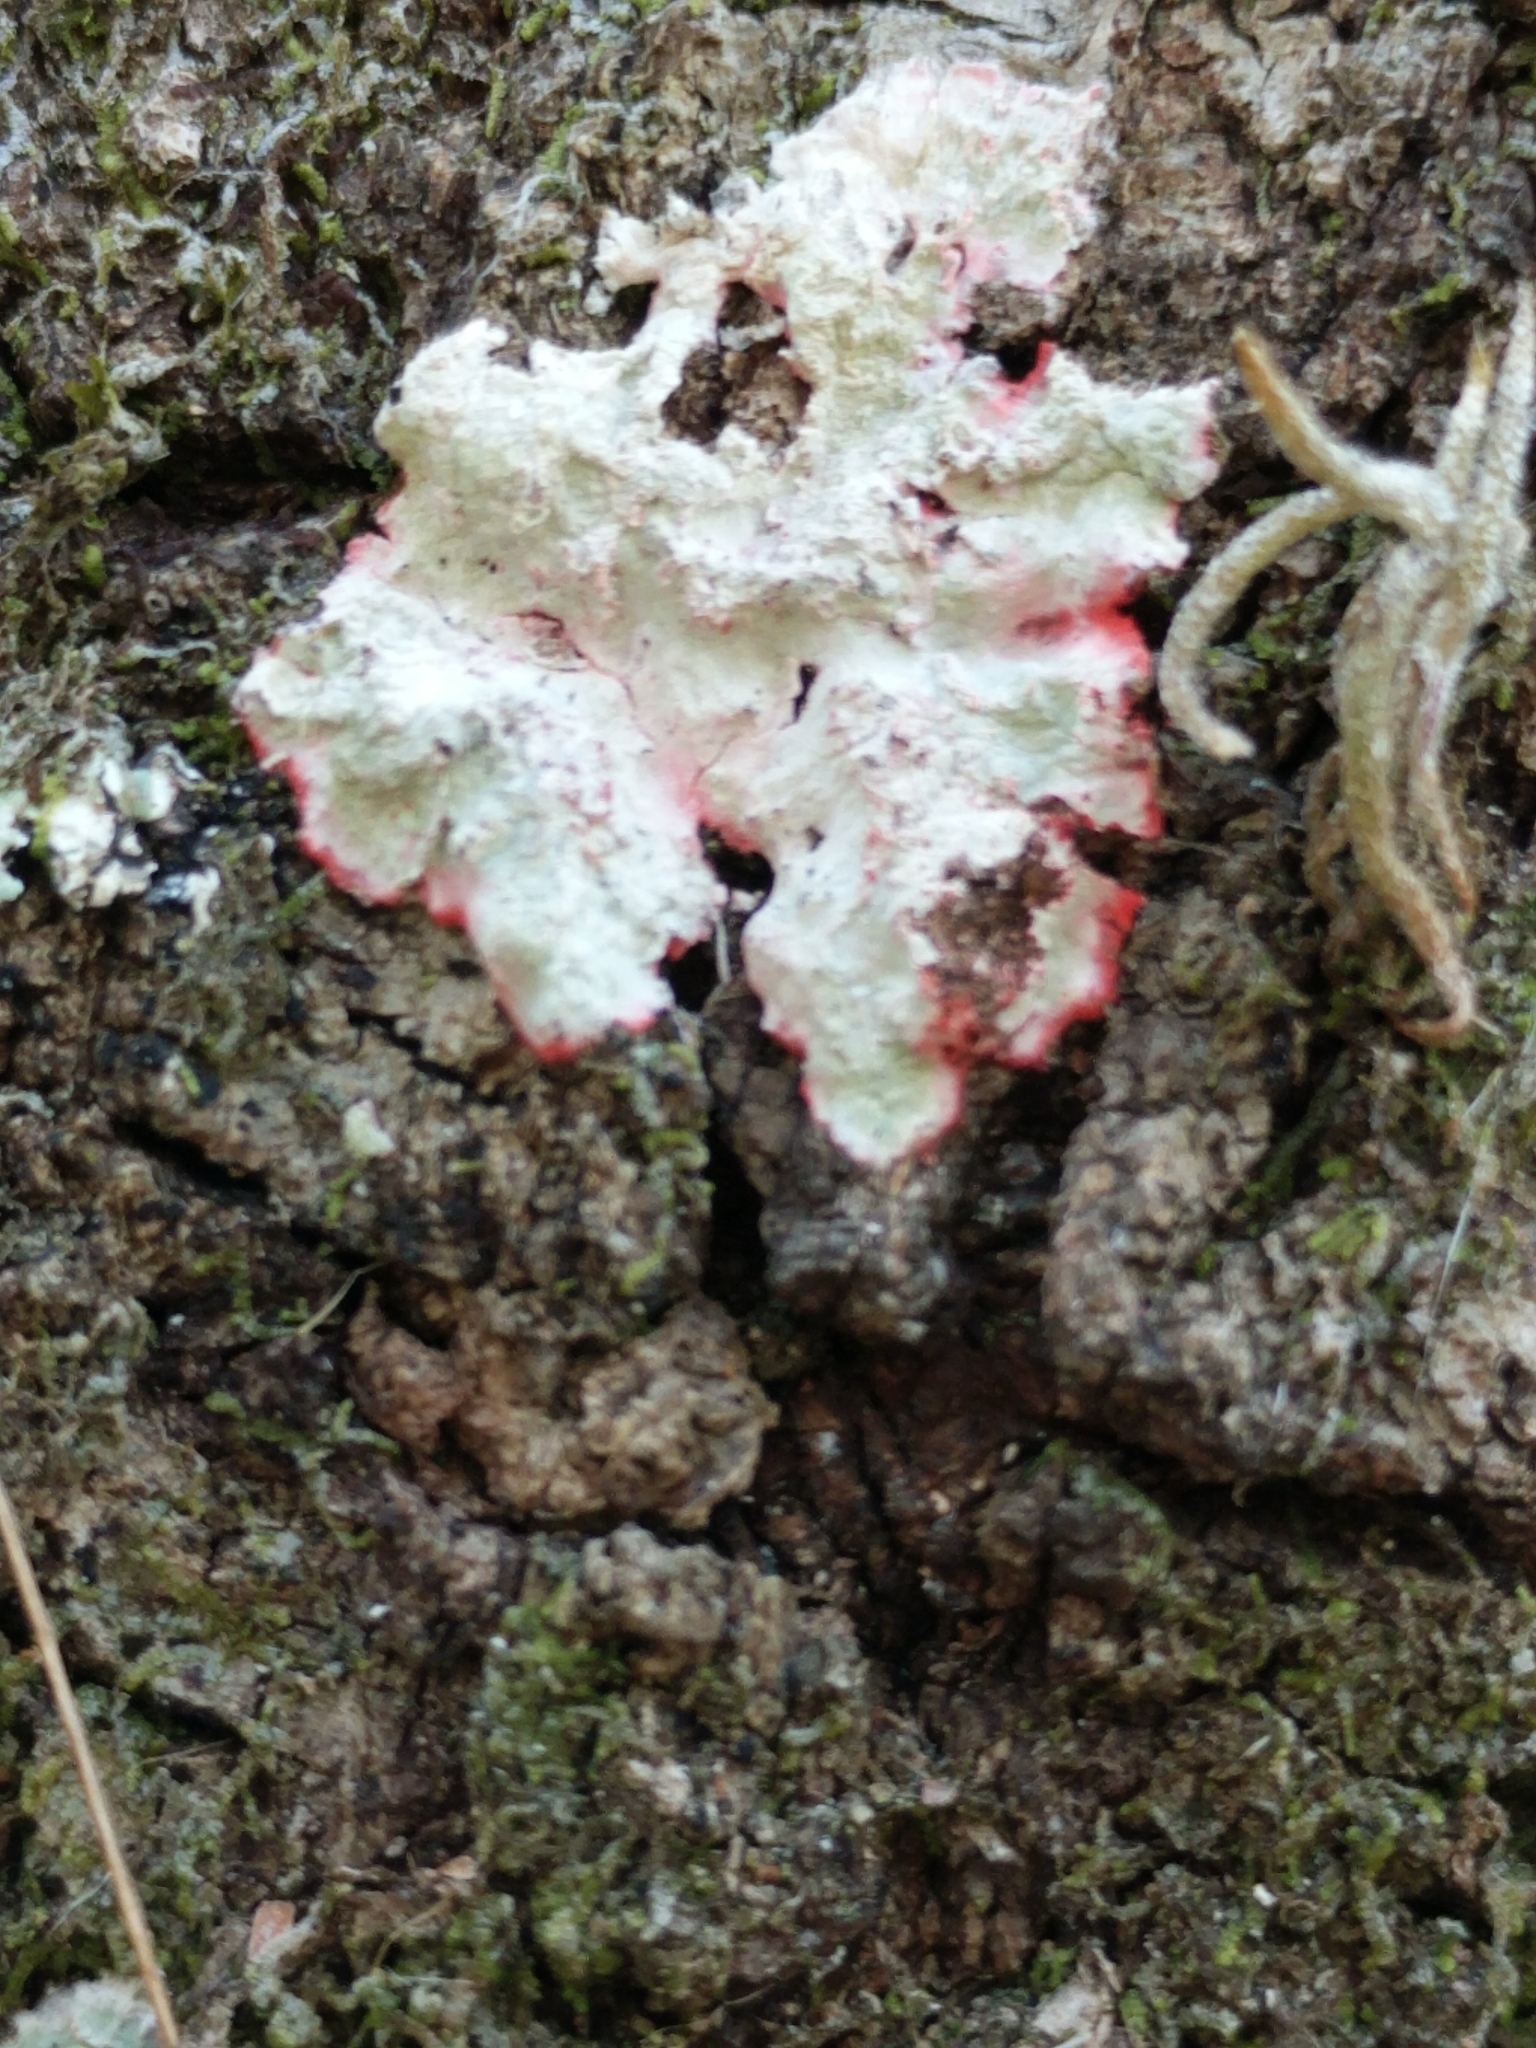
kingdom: Fungi
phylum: Ascomycota
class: Arthoniomycetes
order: Arthoniales
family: Arthoniaceae
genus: Herpothallon
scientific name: Herpothallon rubrocinctum
